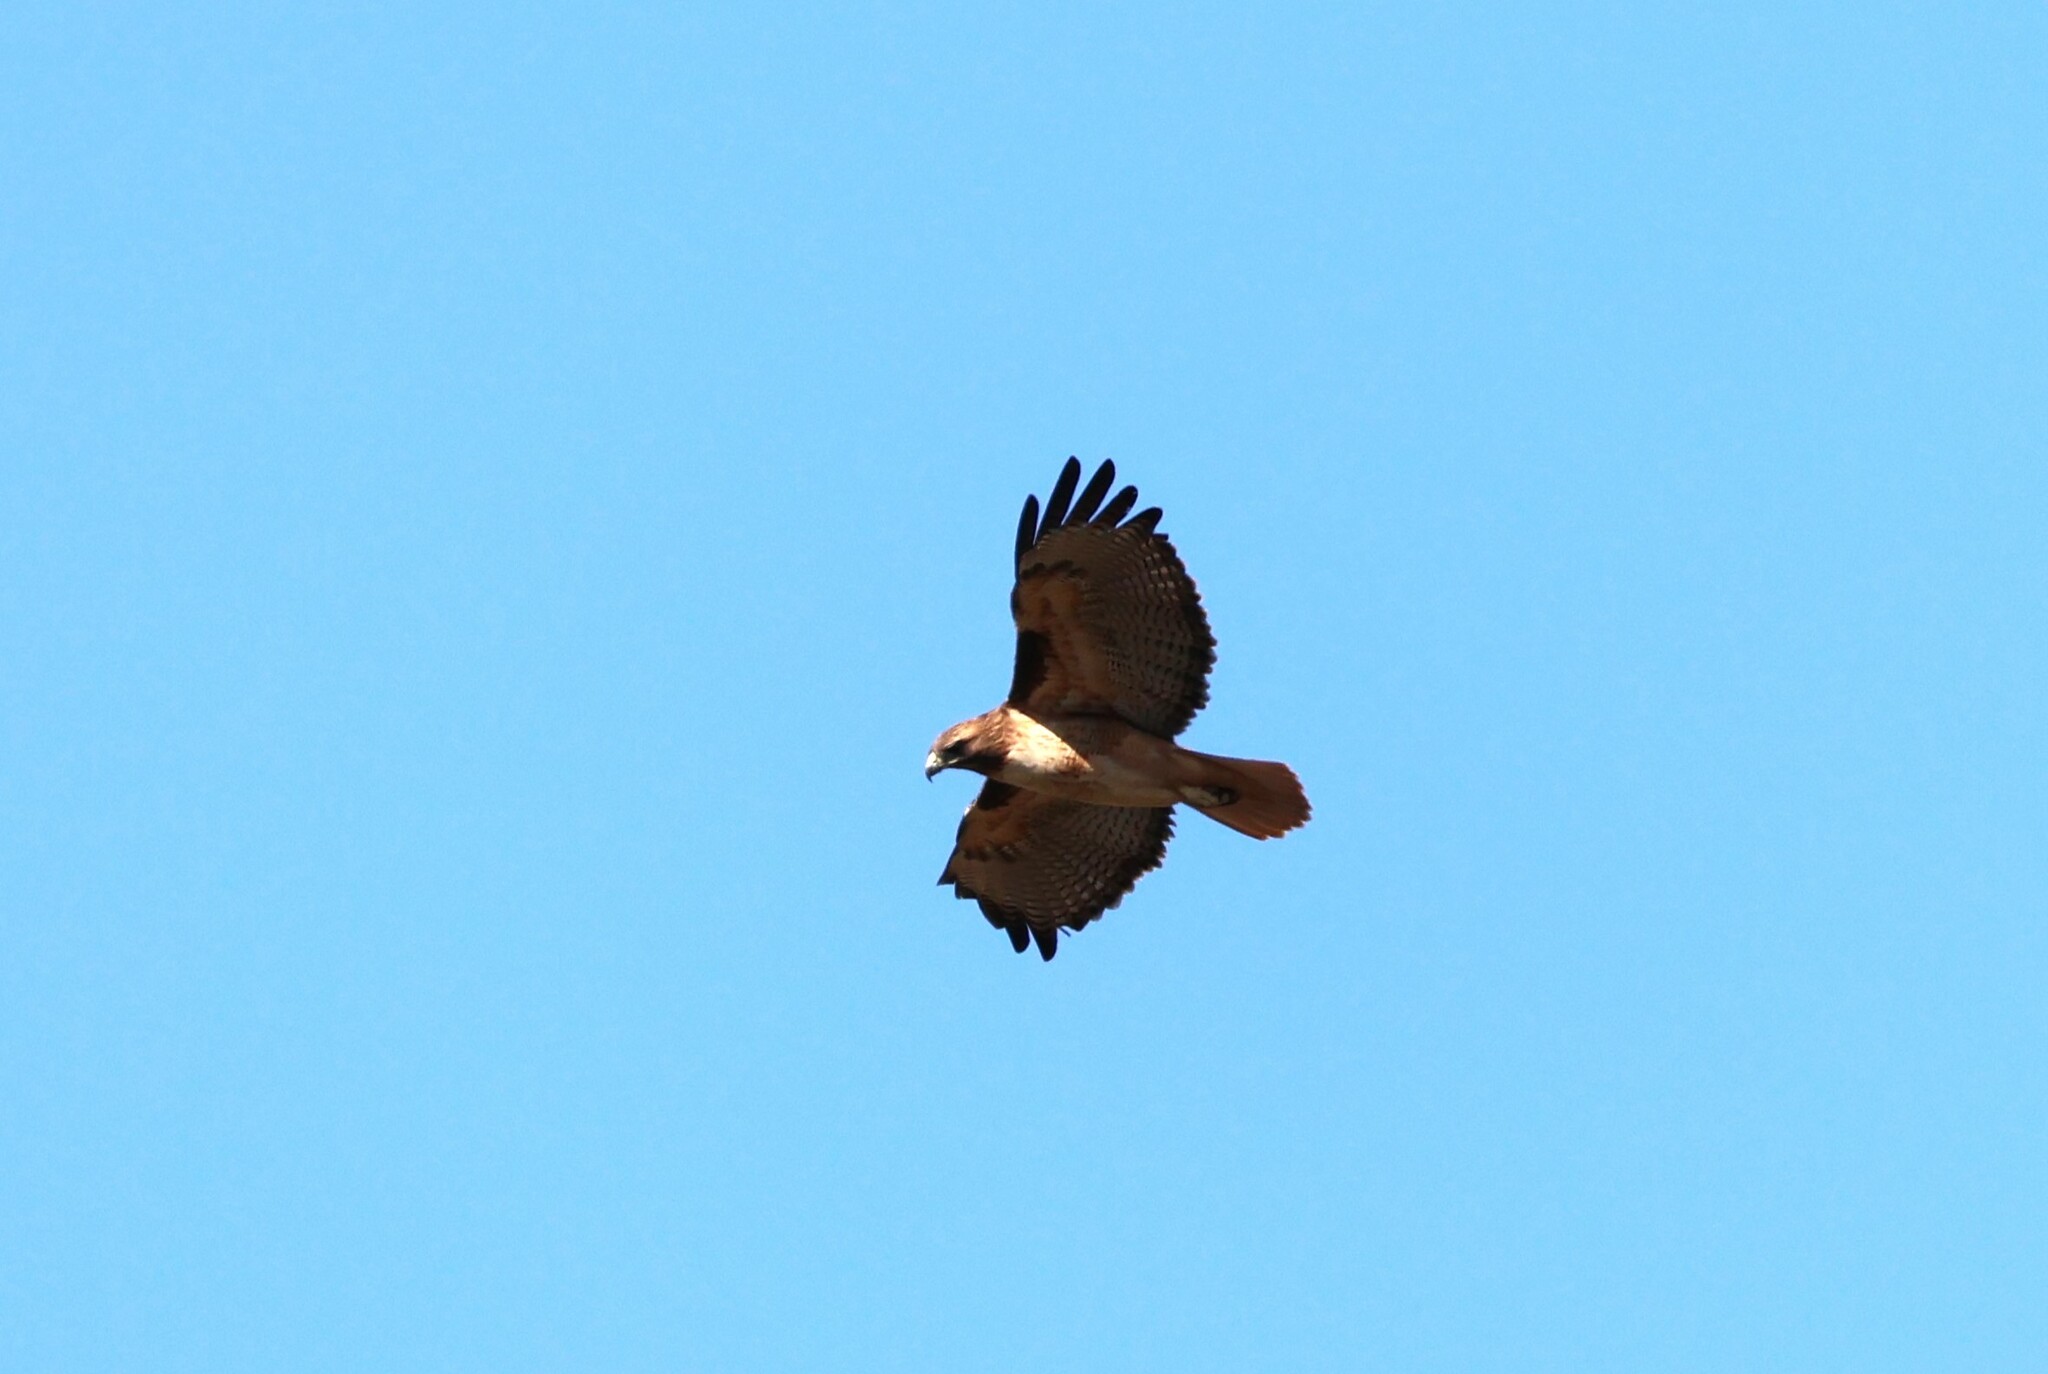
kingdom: Animalia
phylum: Chordata
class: Aves
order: Accipitriformes
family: Accipitridae
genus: Buteo
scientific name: Buteo jamaicensis
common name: Red-tailed hawk
